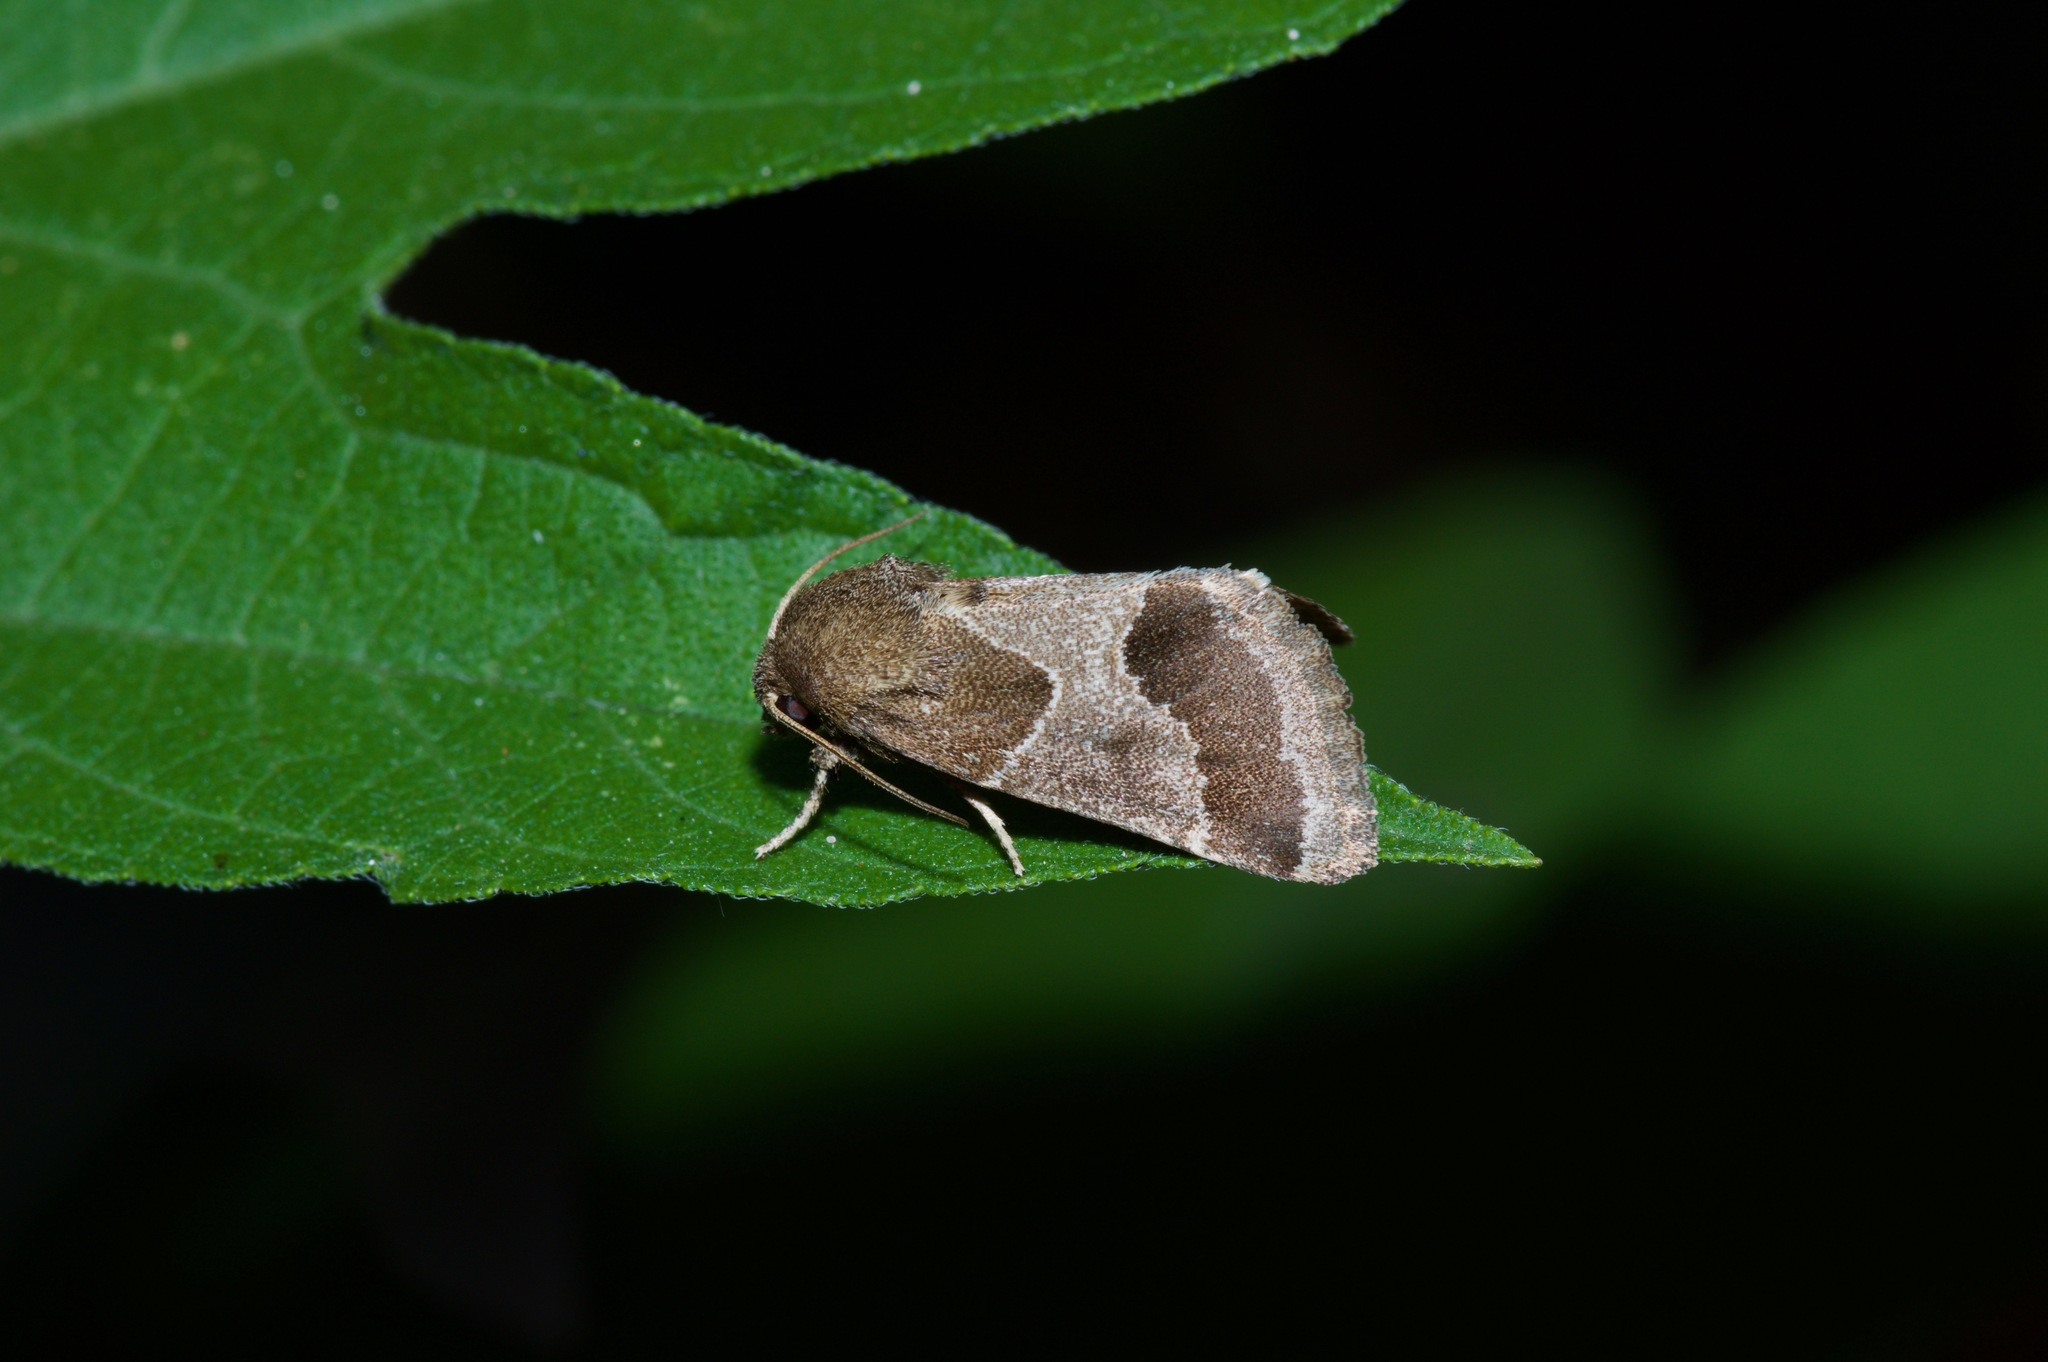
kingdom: Animalia
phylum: Arthropoda
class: Insecta
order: Lepidoptera
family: Noctuidae
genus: Schinia
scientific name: Schinia thoreaui
